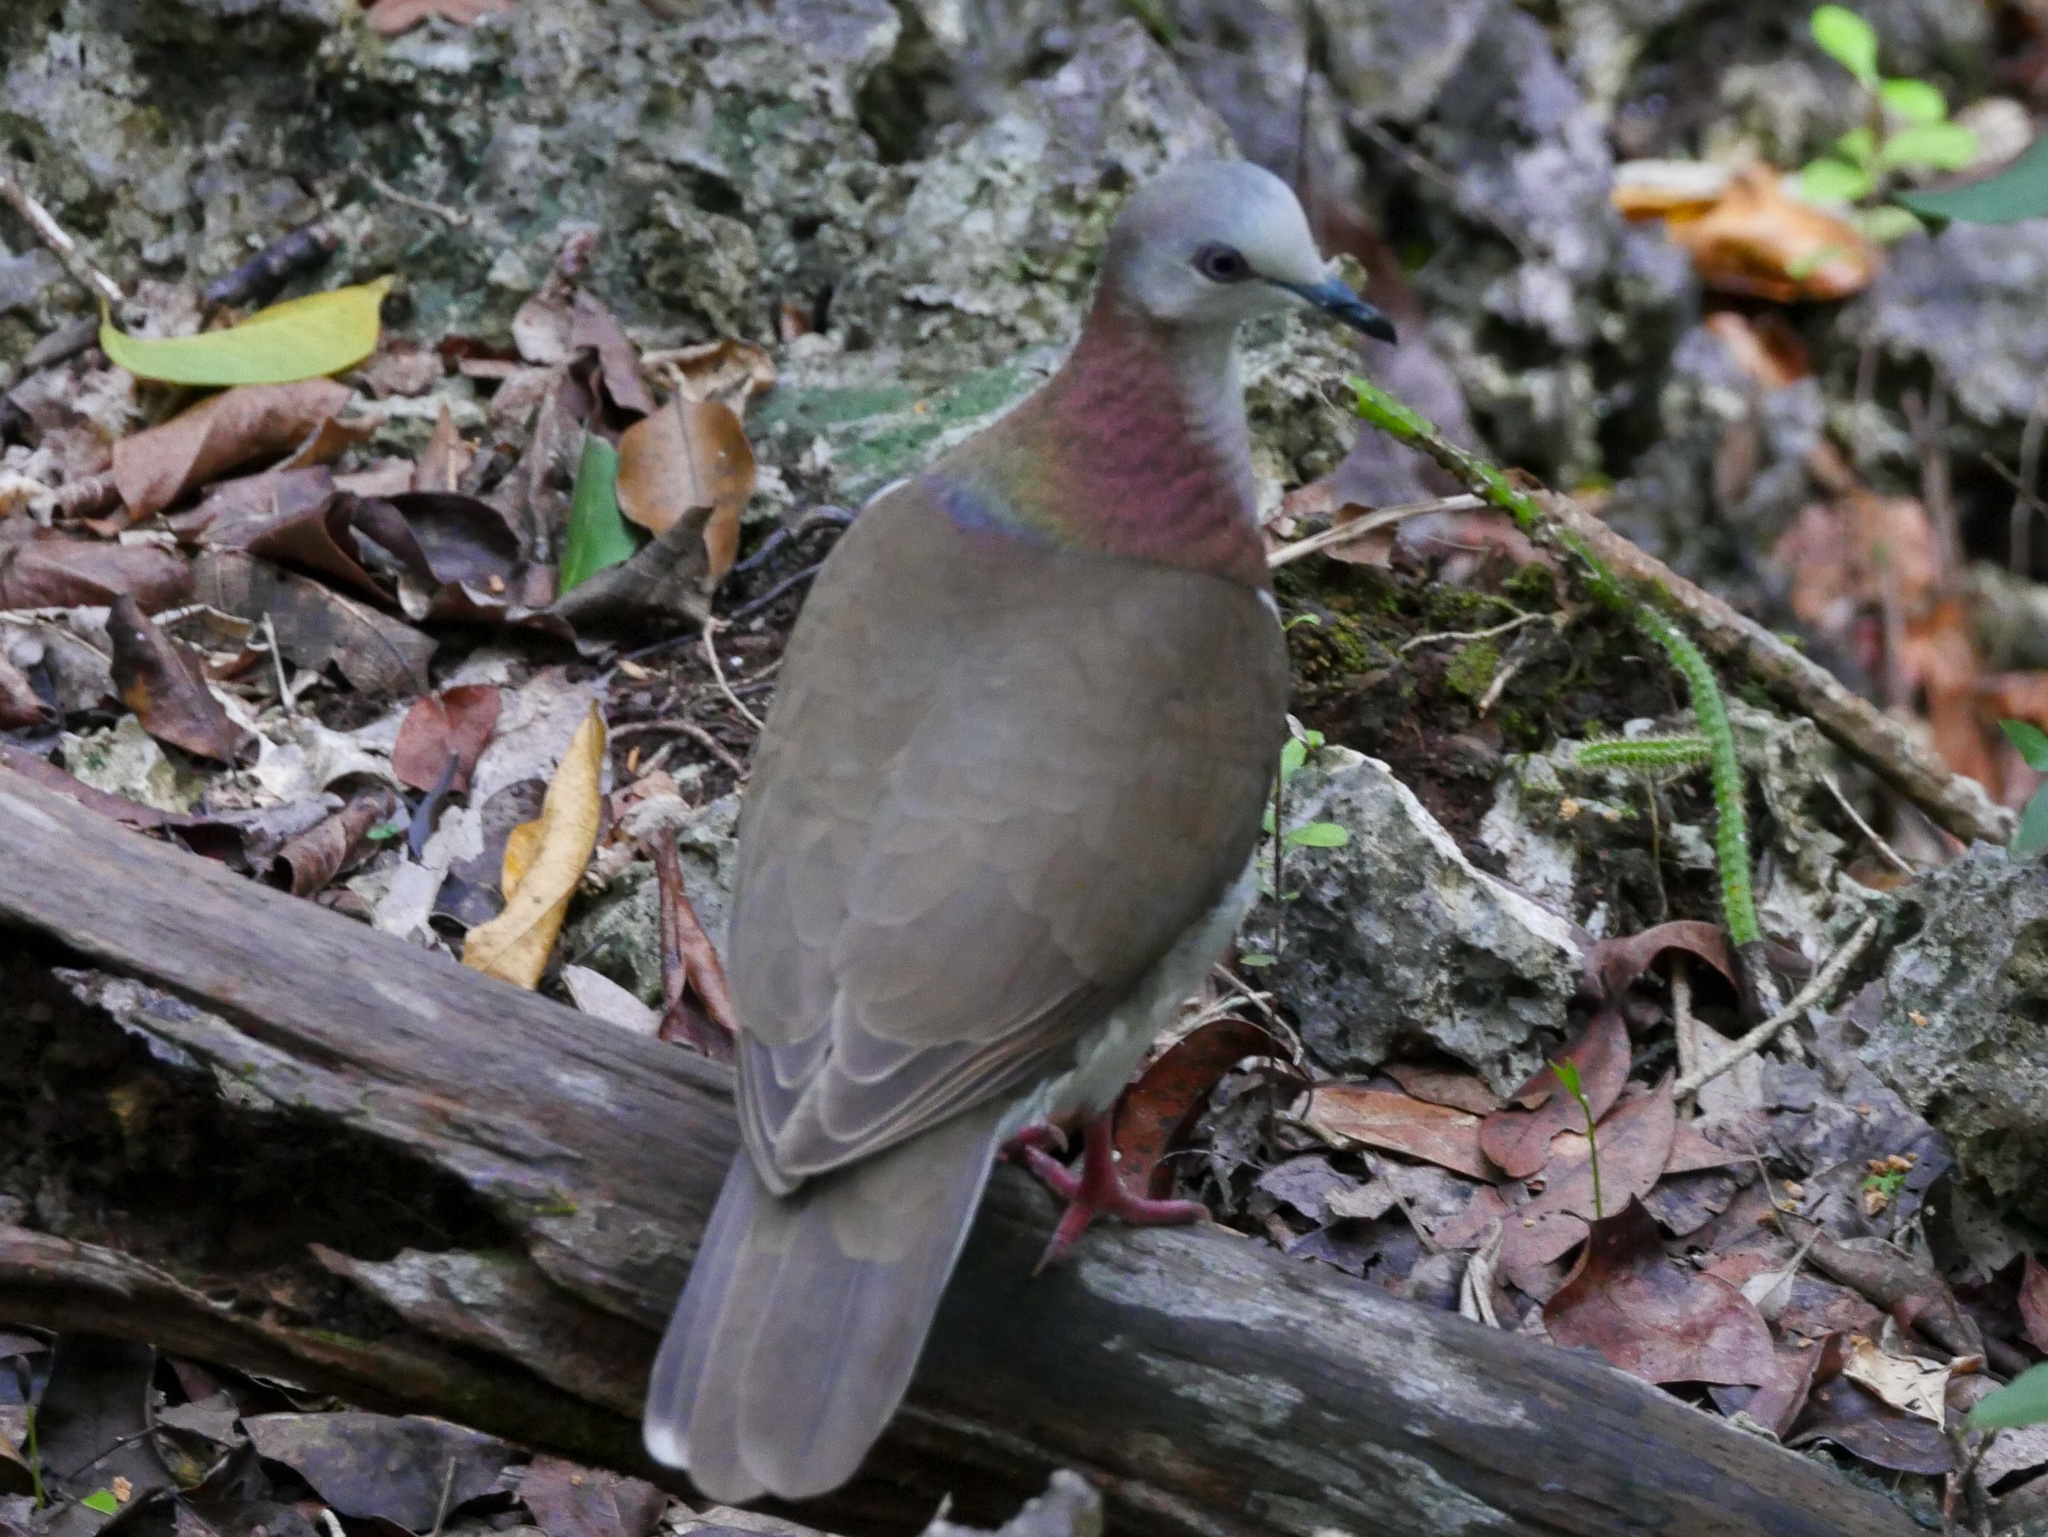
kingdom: Animalia
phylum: Chordata
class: Aves
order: Columbiformes
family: Columbidae
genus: Leptotila
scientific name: Leptotila jamaicensis
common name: Caribbean dove
